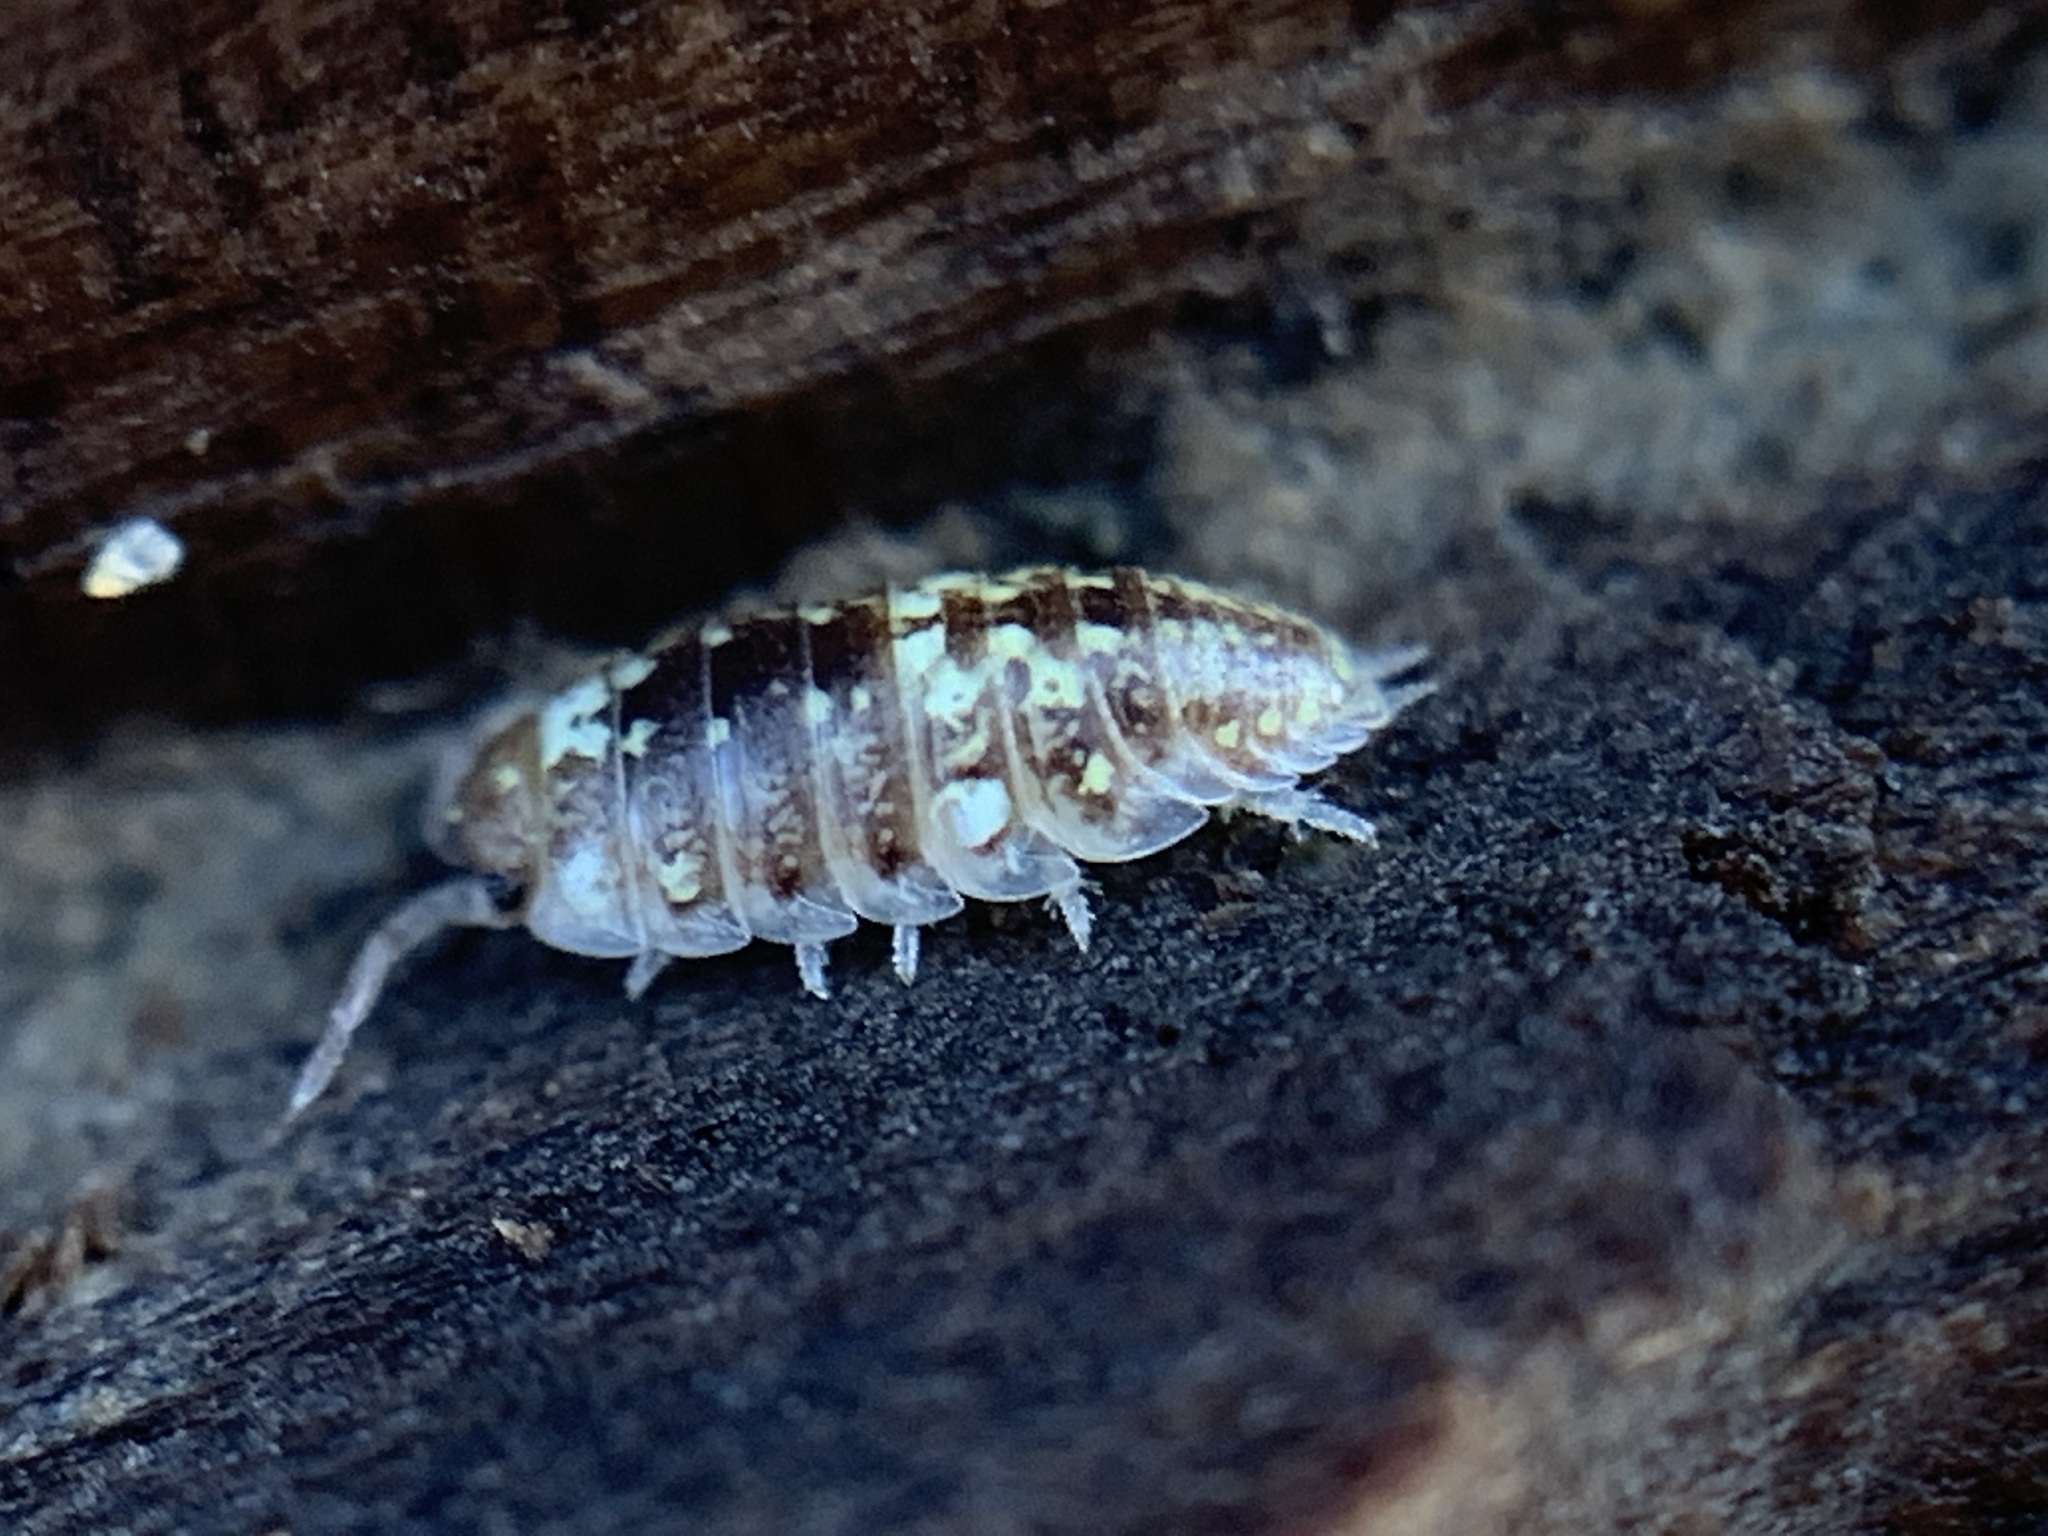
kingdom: Animalia
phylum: Arthropoda
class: Malacostraca
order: Isopoda
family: Alloniscidae
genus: Alloniscus
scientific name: Alloniscus perconvexus
